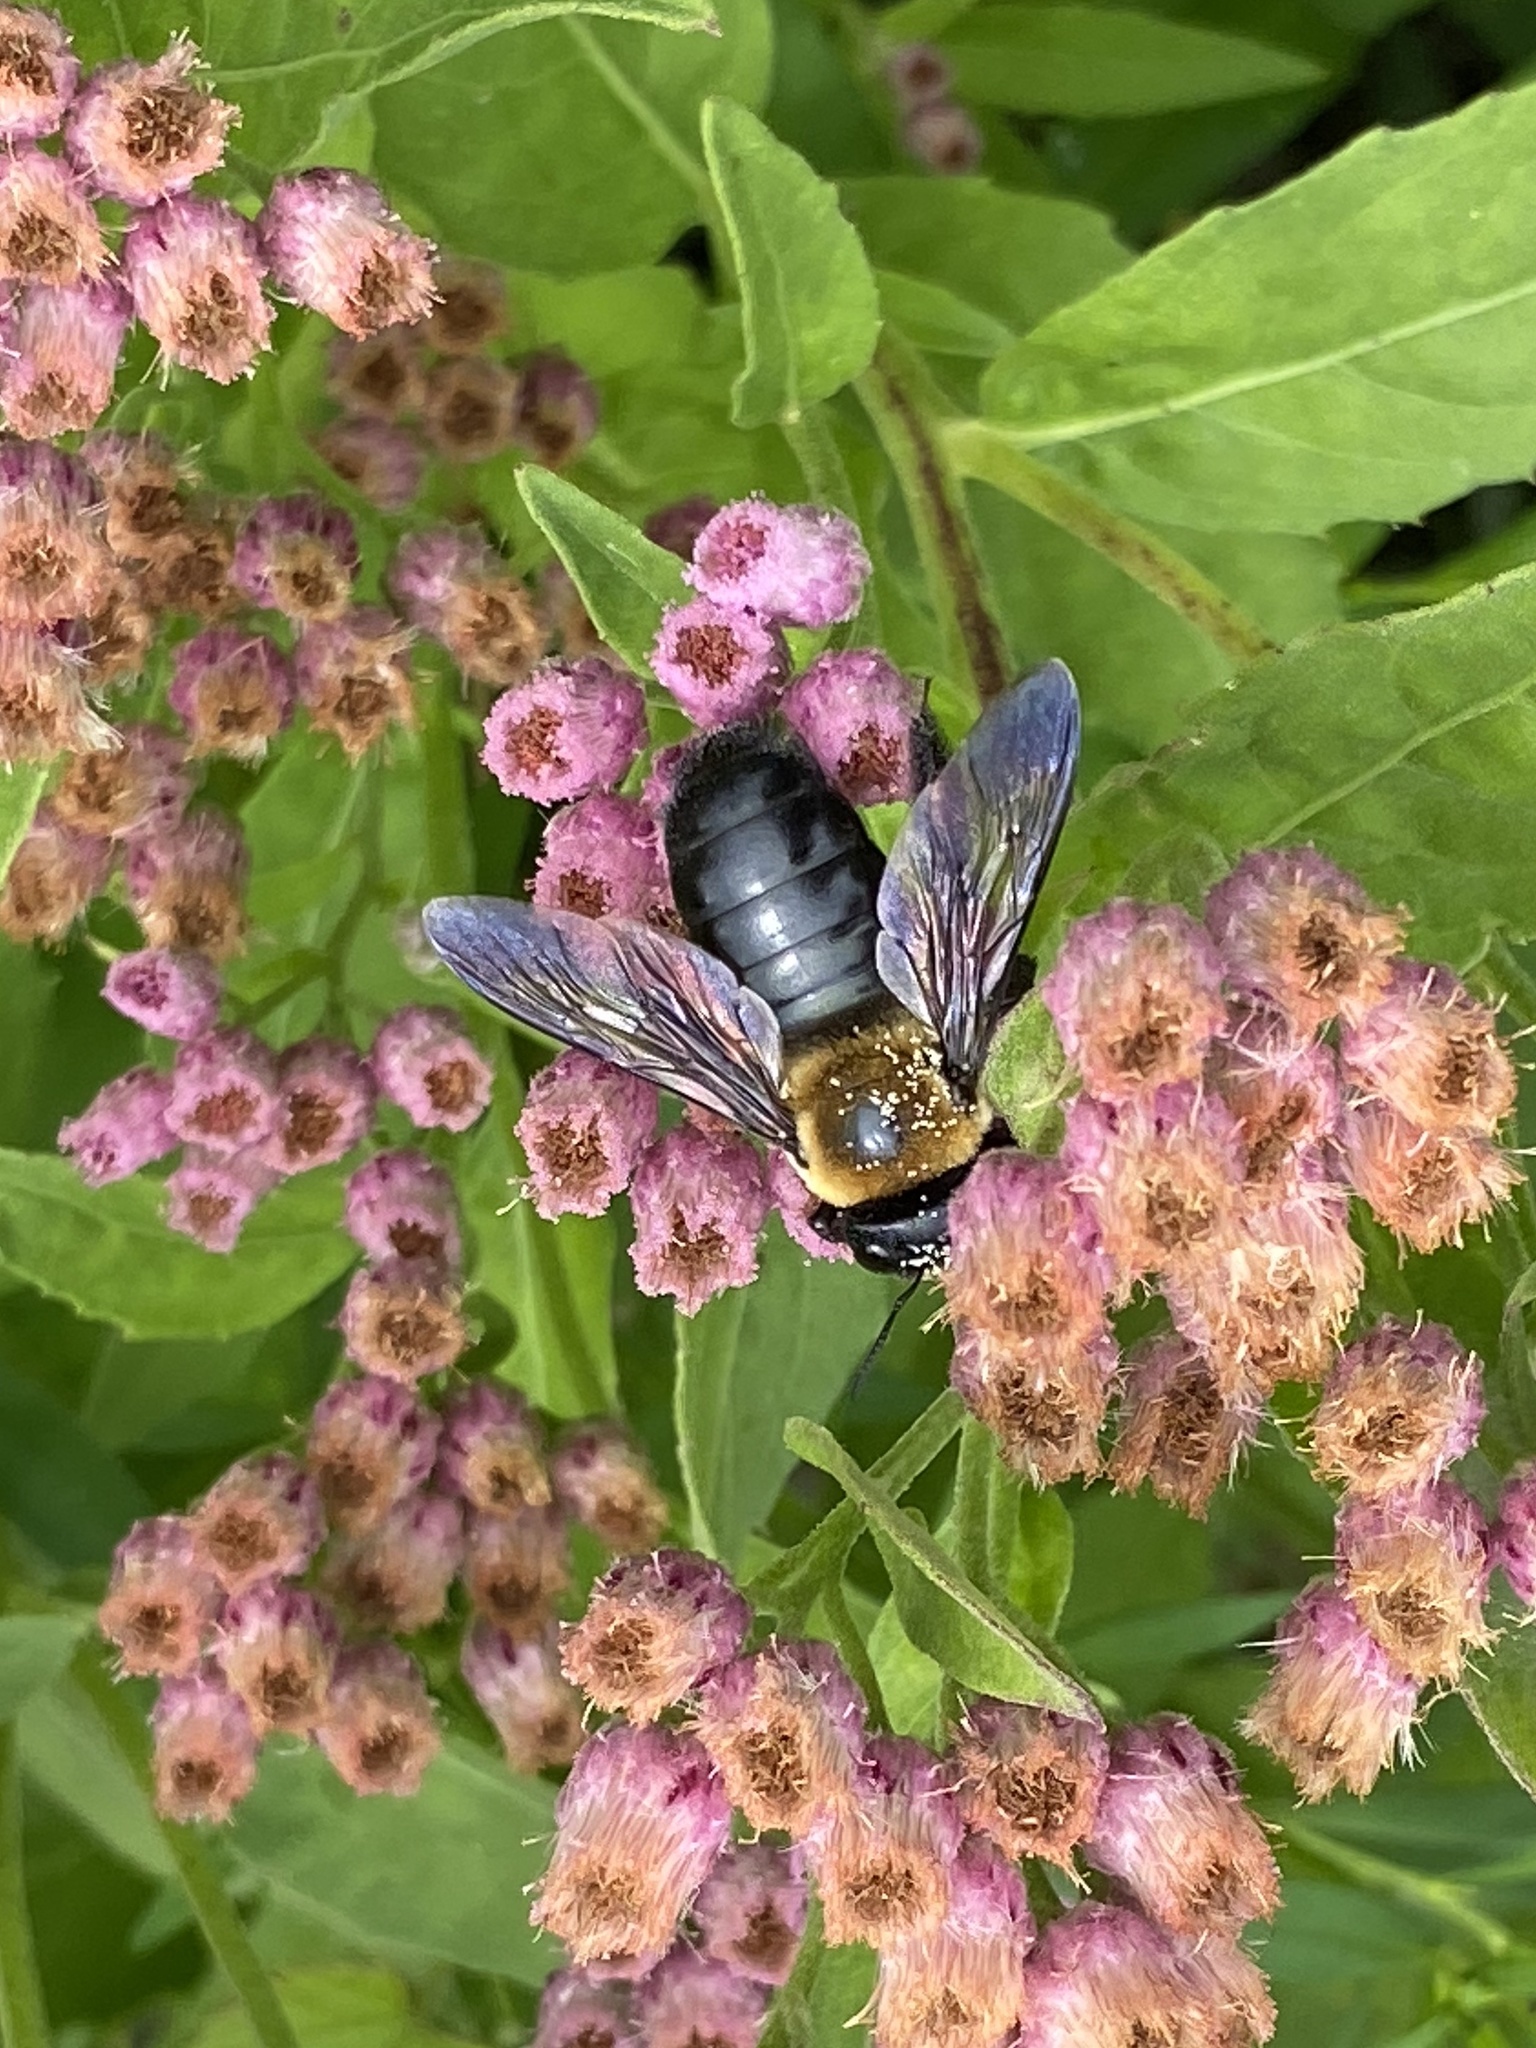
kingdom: Animalia
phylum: Arthropoda
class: Insecta
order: Hymenoptera
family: Apidae
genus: Xylocopa
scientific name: Xylocopa virginica
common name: Carpenter bee
